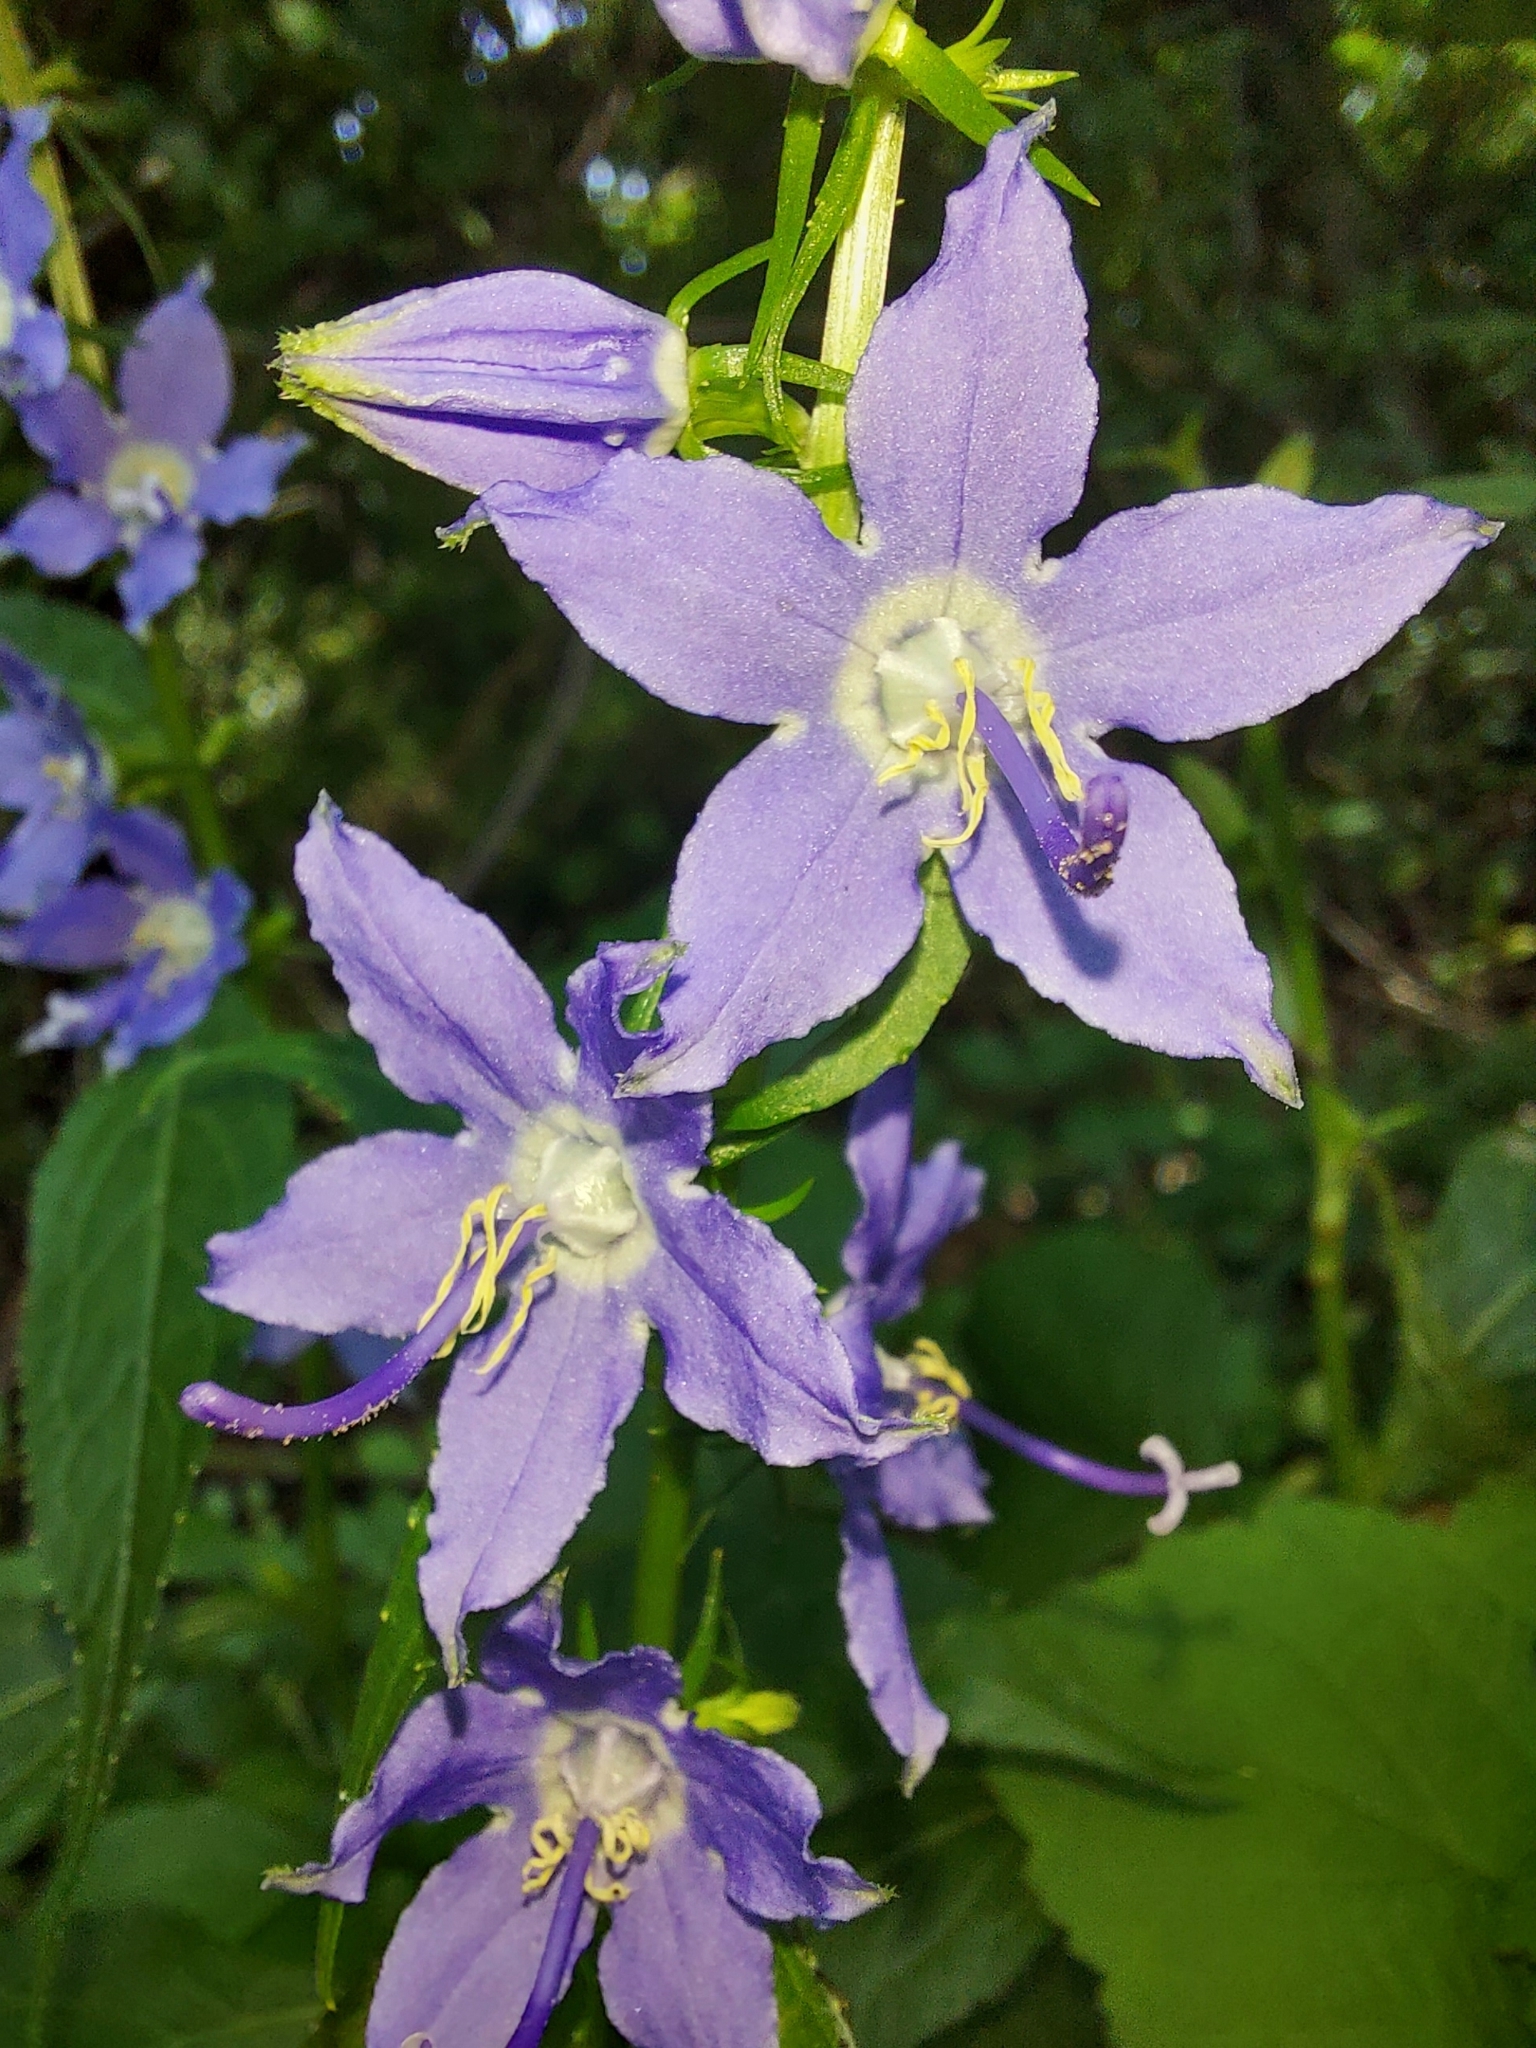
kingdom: Plantae
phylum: Tracheophyta
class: Magnoliopsida
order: Asterales
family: Campanulaceae
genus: Campanulastrum
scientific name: Campanulastrum americanum
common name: American bellflower
